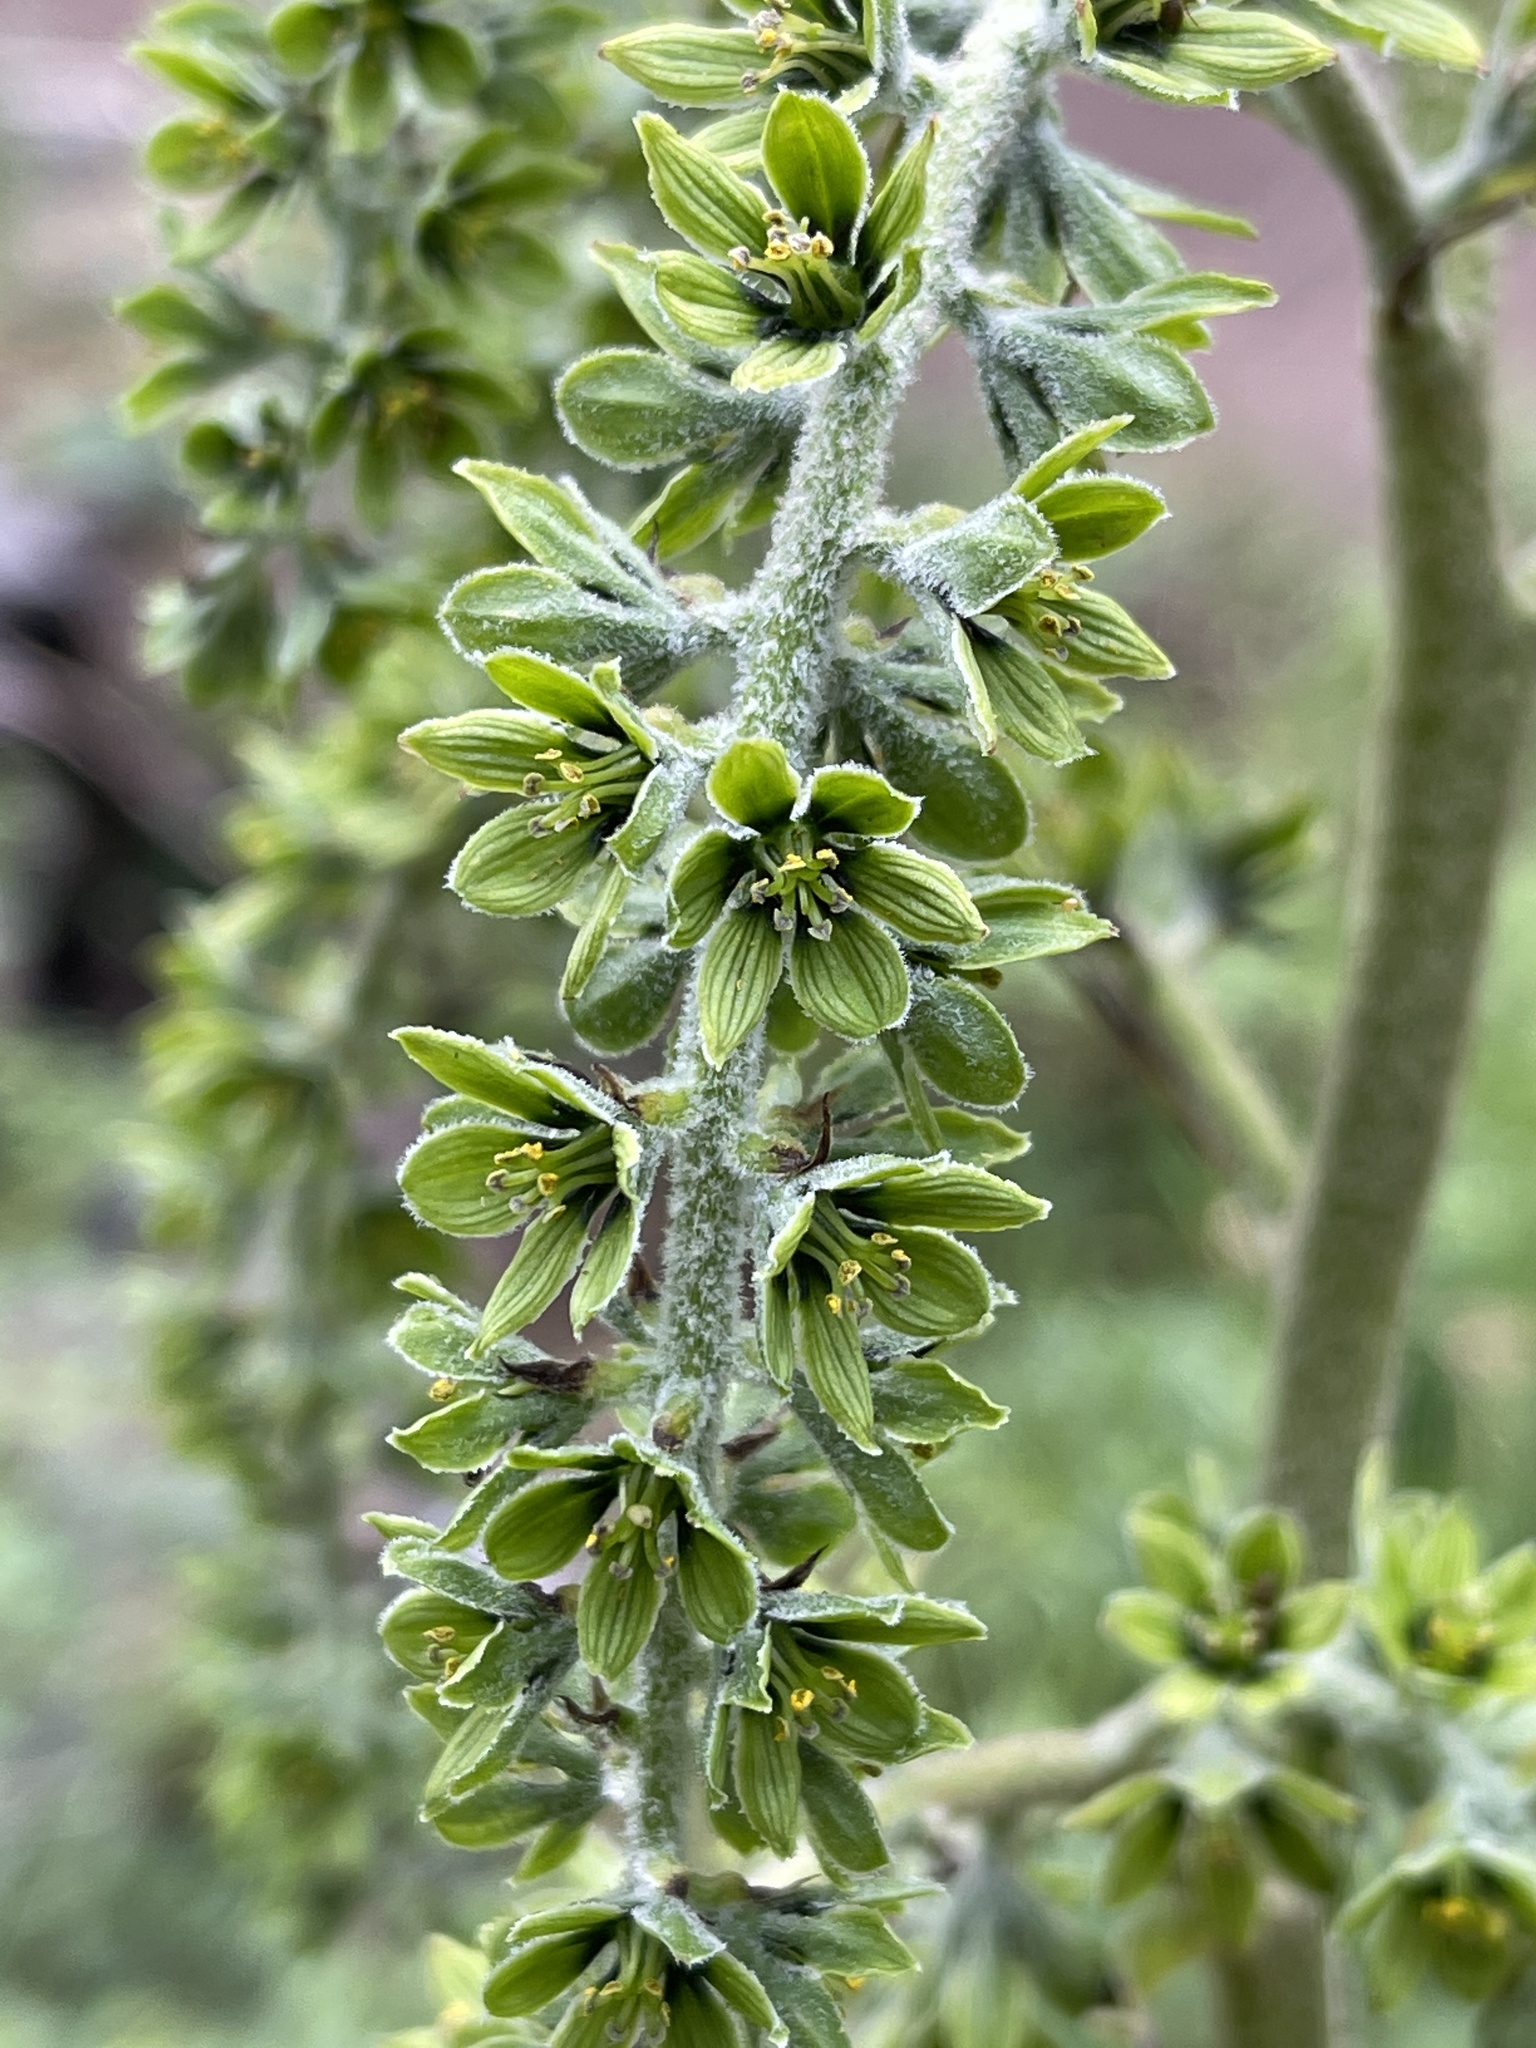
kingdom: Plantae
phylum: Tracheophyta
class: Liliopsida
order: Liliales
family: Melanthiaceae
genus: Veratrum
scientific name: Veratrum viride
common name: American false hellebore
